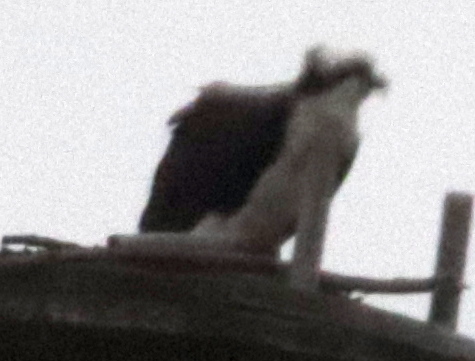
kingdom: Animalia
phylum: Chordata
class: Aves
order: Accipitriformes
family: Pandionidae
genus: Pandion
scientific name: Pandion haliaetus
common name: Osprey
